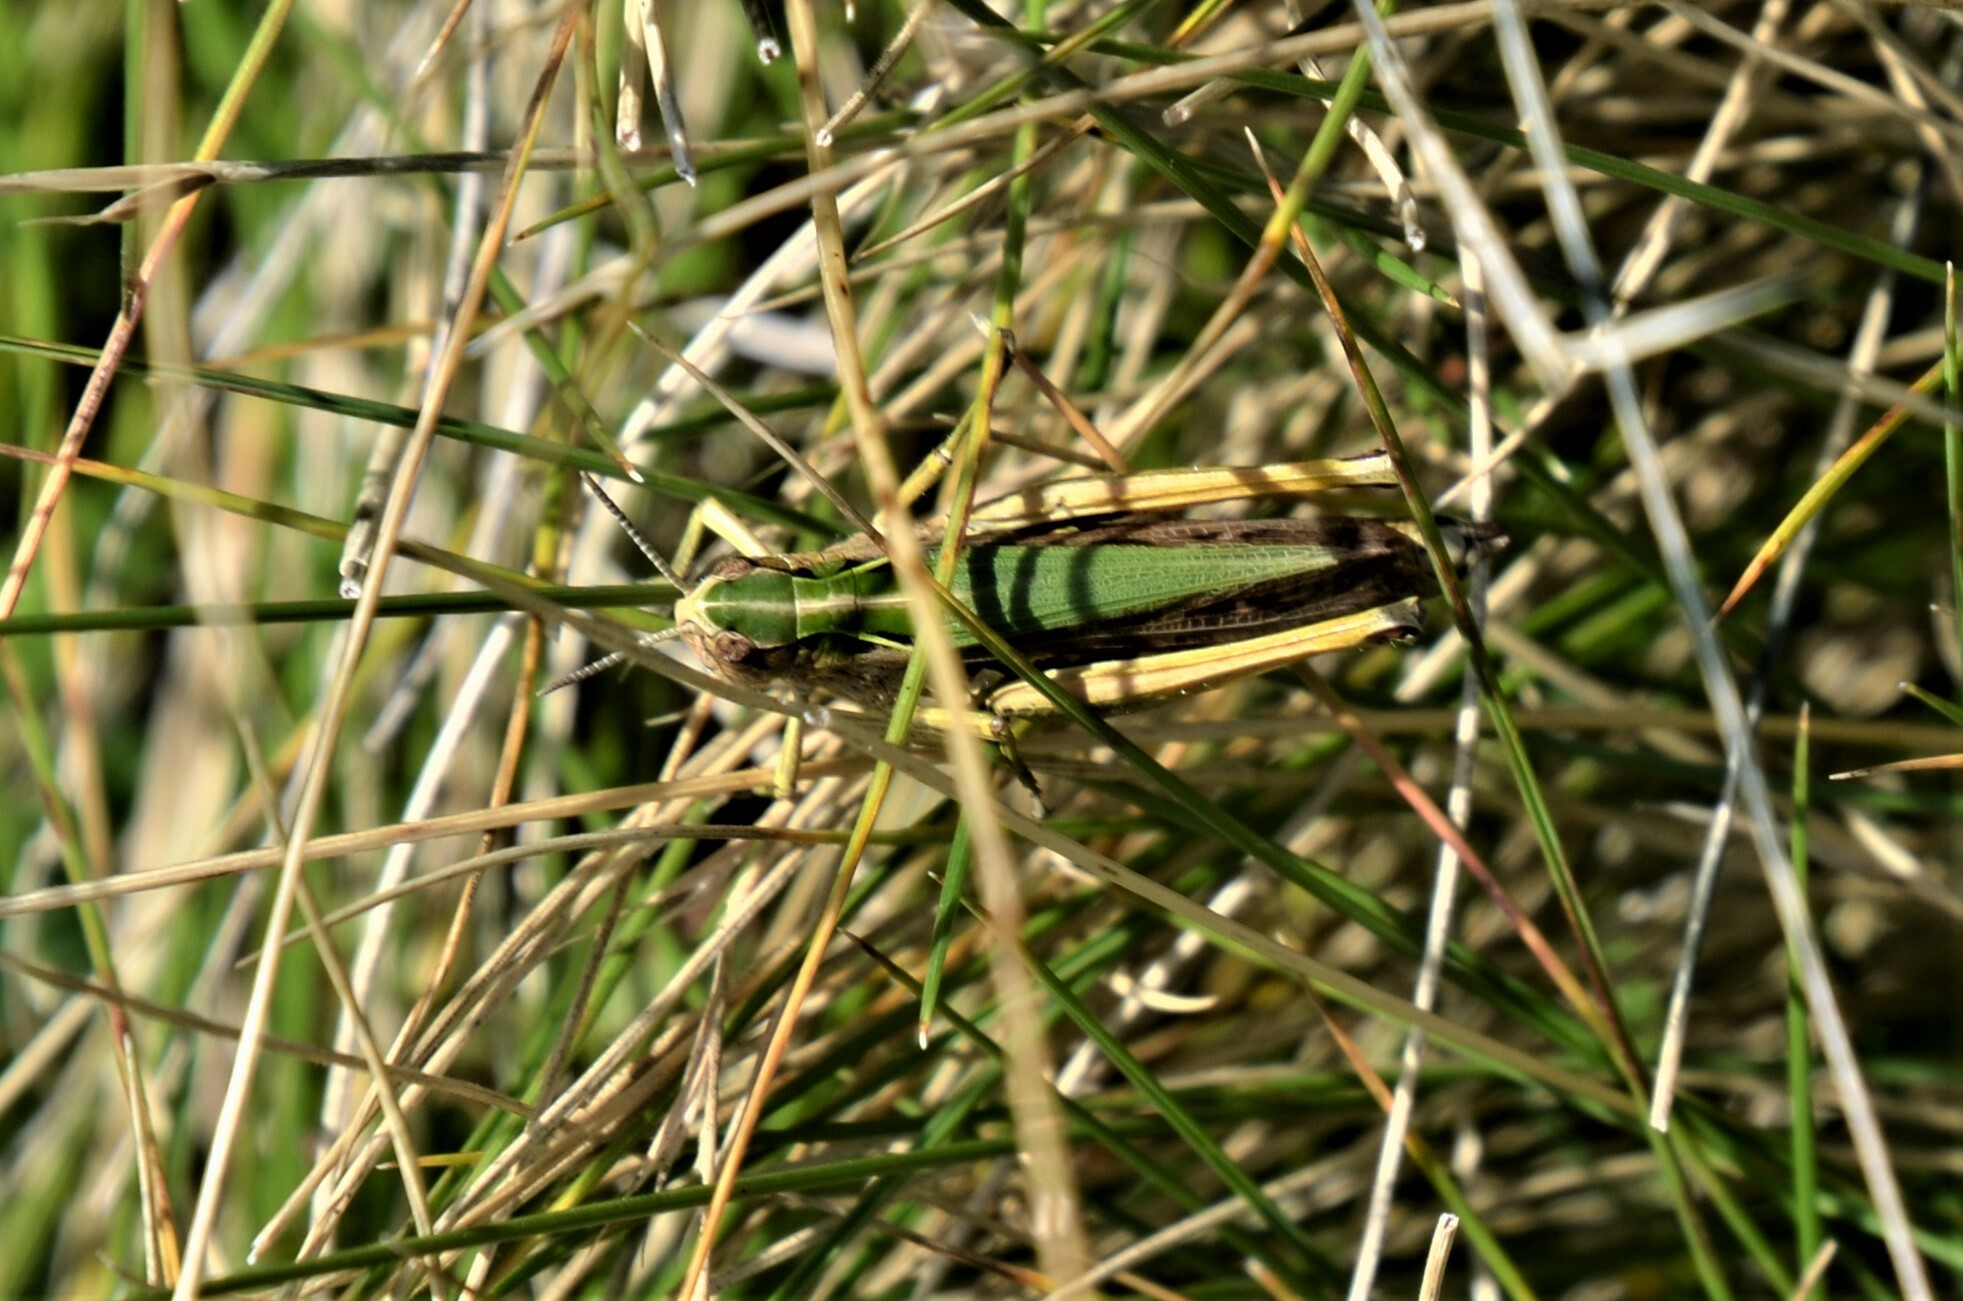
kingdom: Animalia
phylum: Arthropoda
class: Insecta
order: Orthoptera
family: Acrididae
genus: Omocestus
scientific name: Omocestus viridulus
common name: Common green grasshopper
